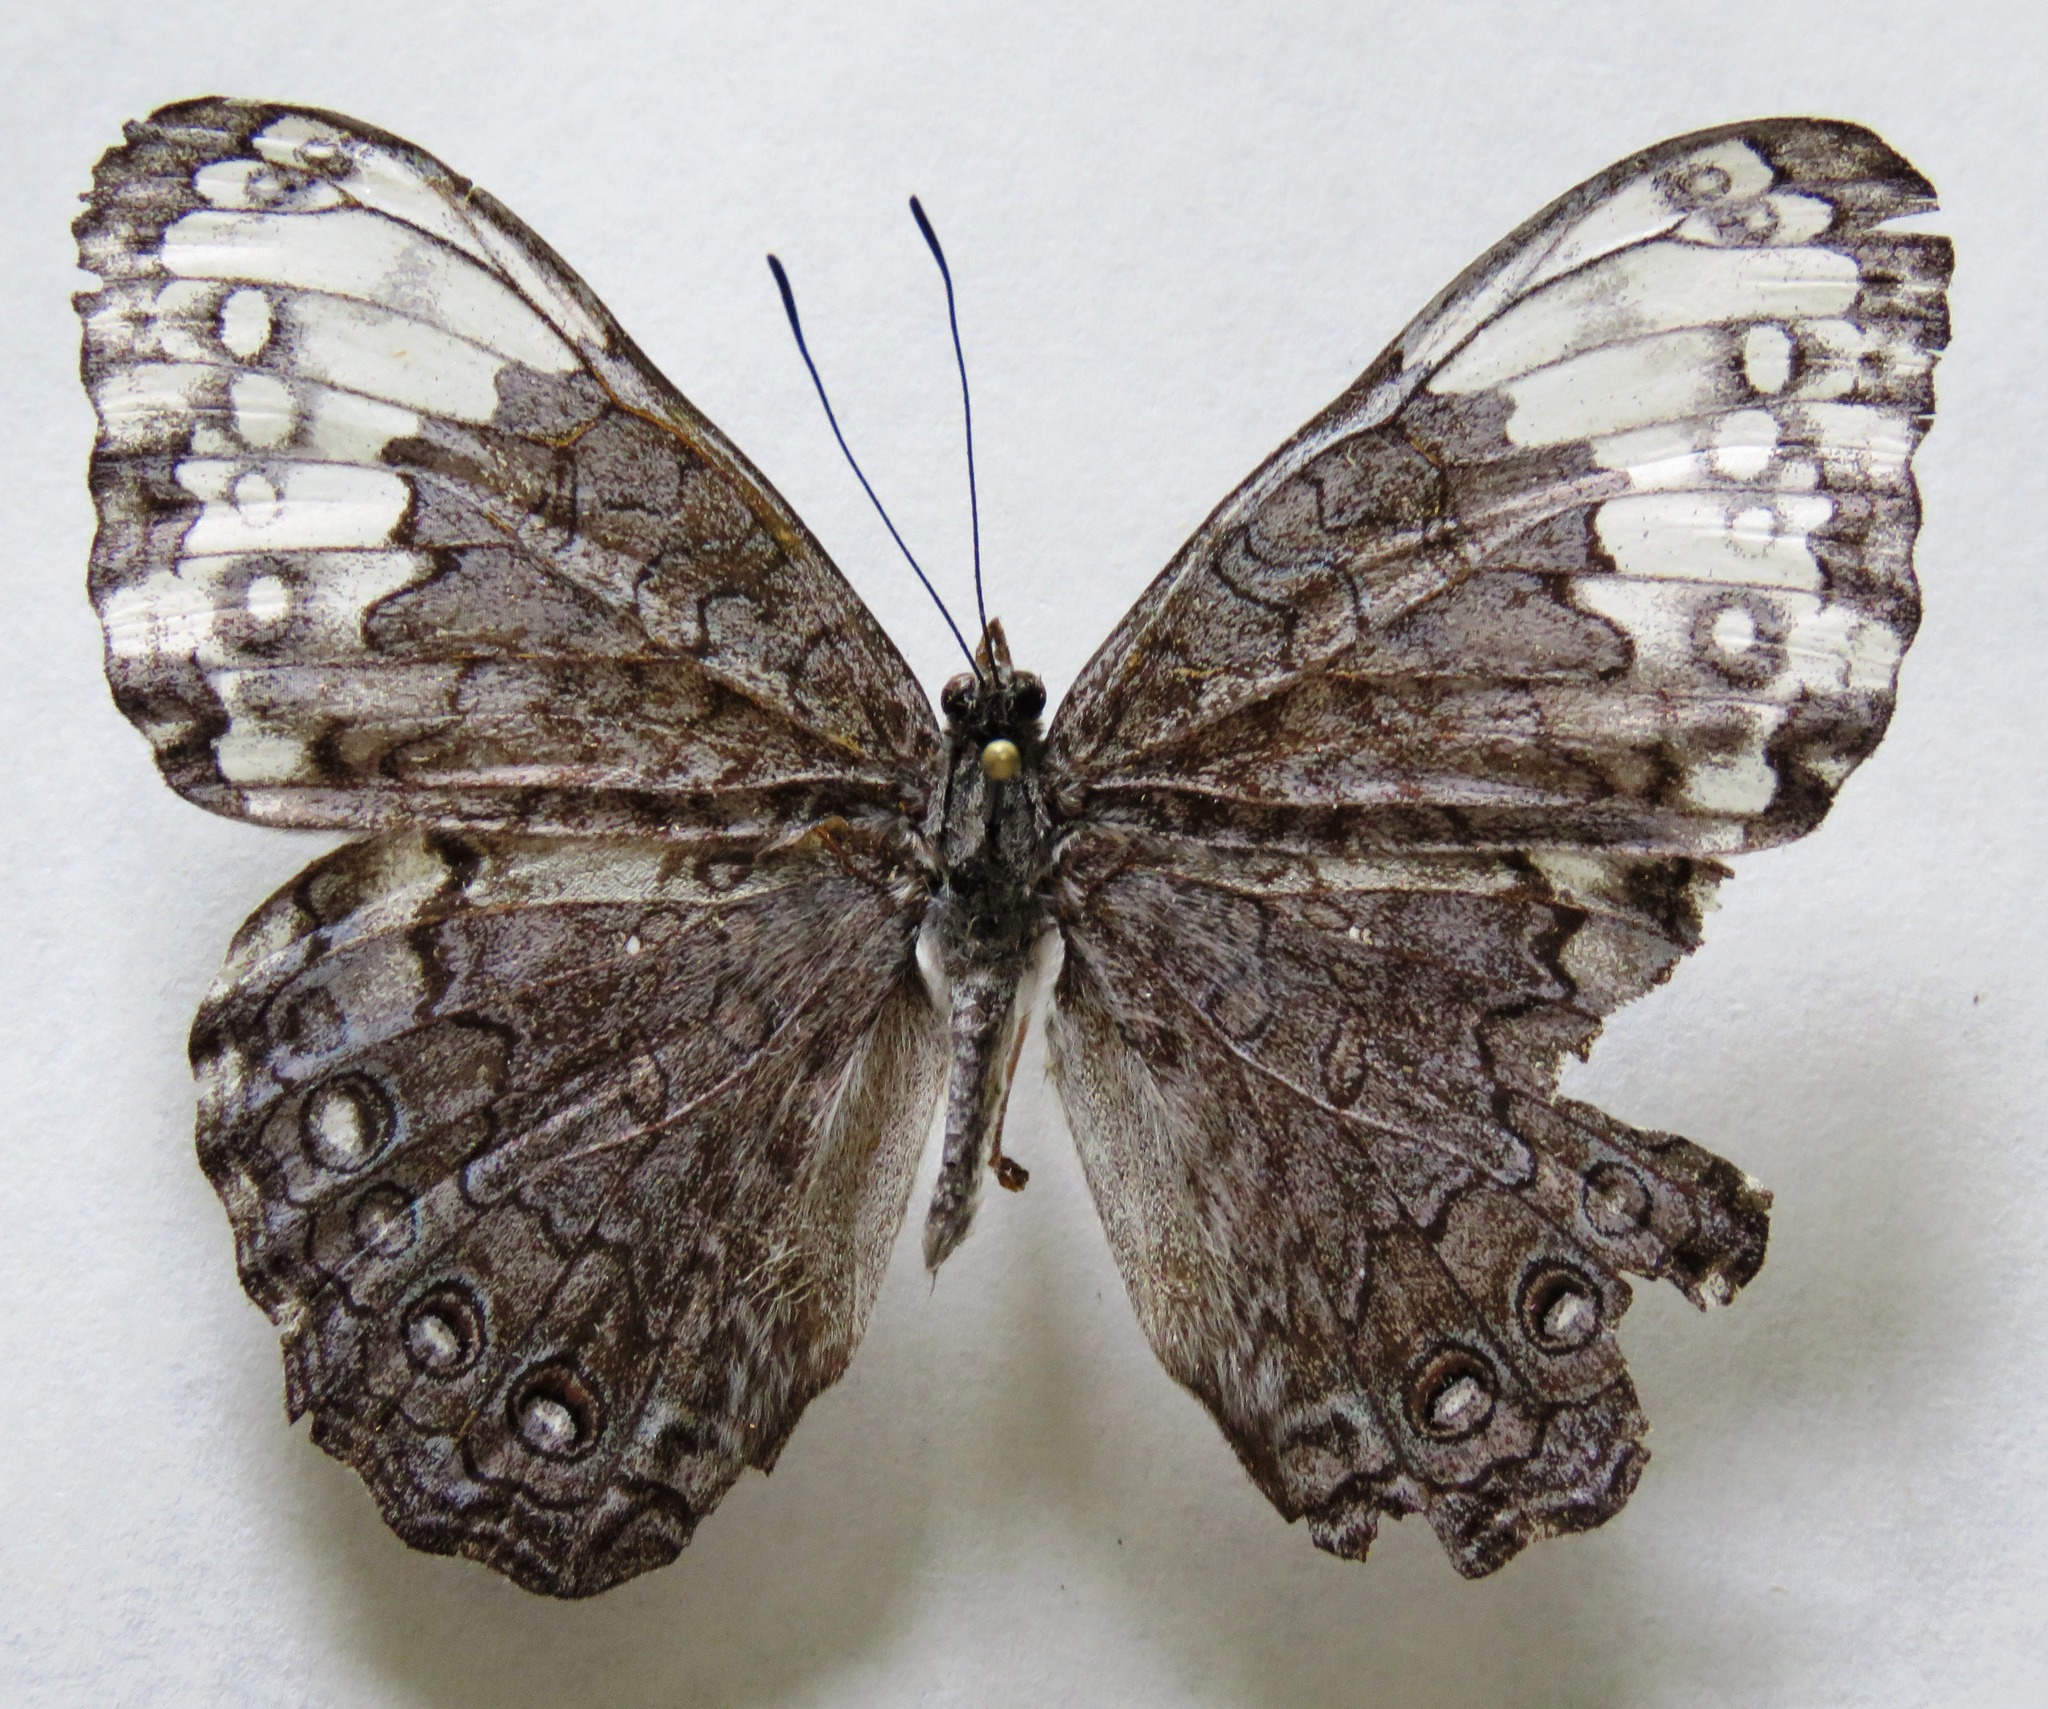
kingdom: Animalia
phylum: Arthropoda
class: Insecta
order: Lepidoptera
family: Nymphalidae
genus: Hamadryas
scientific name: Hamadryas glauconome
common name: Glaucous cracker
